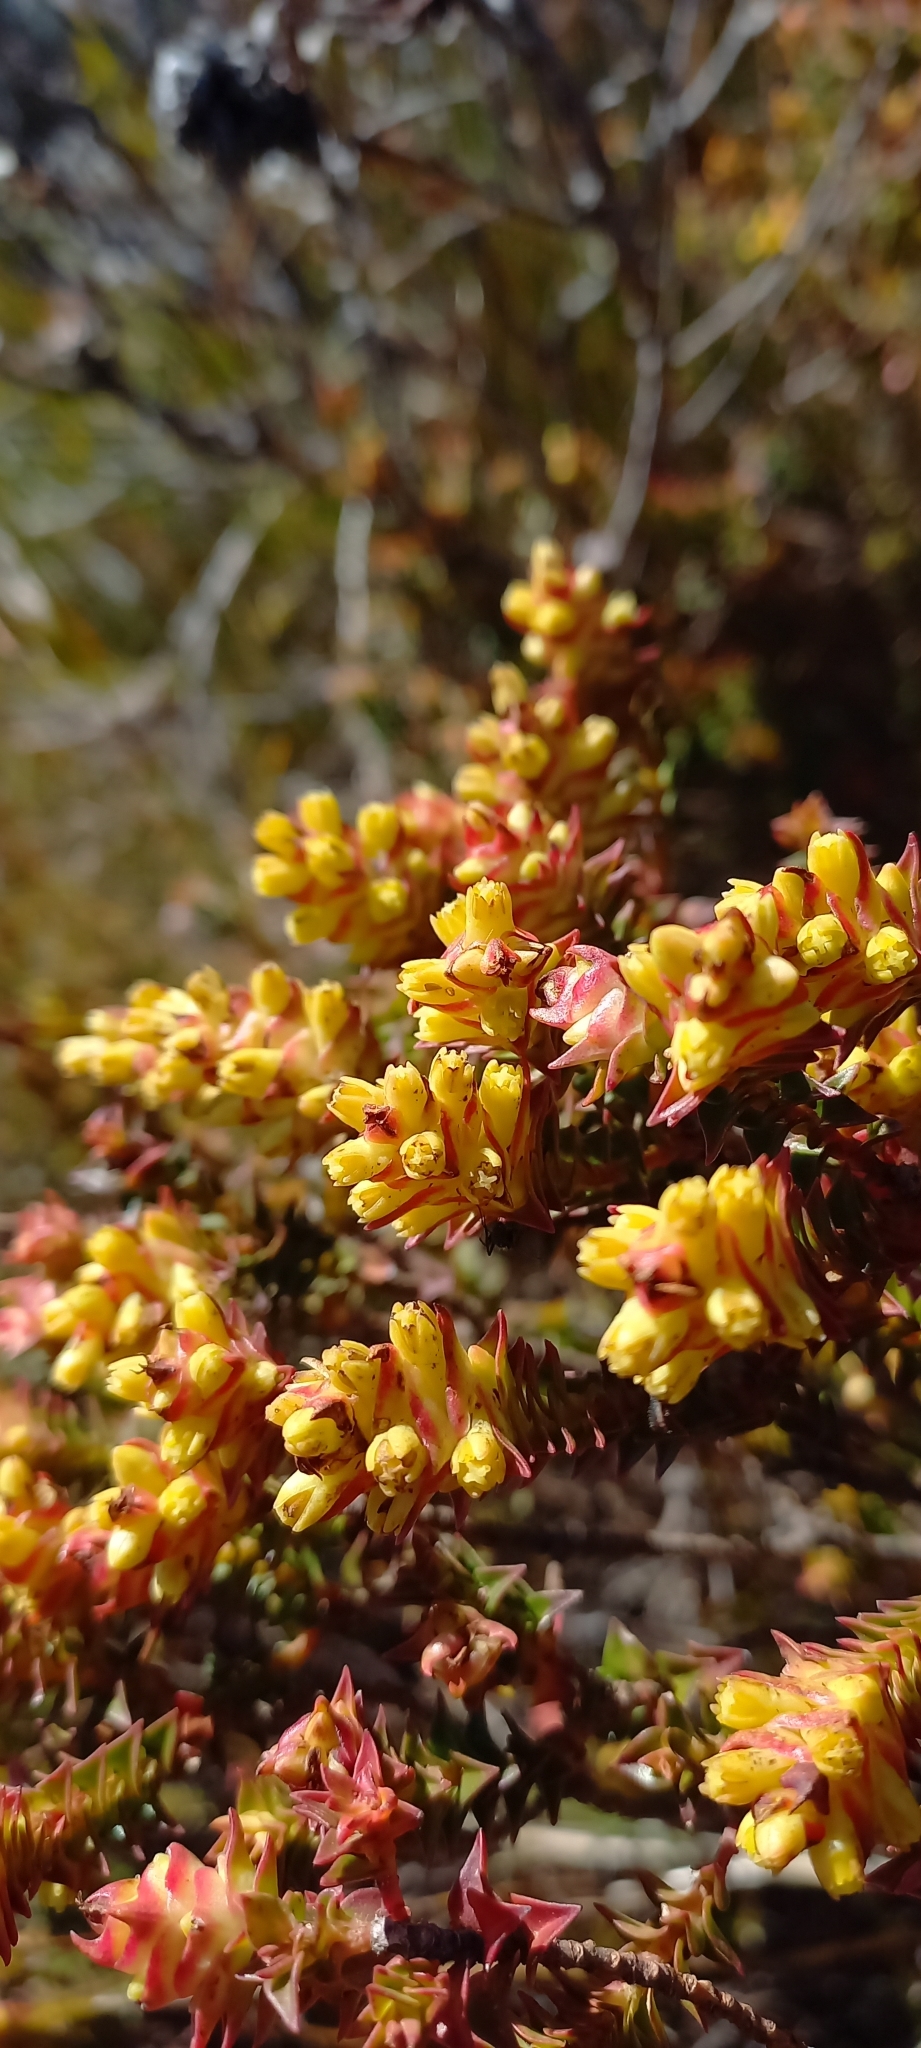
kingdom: Plantae
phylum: Tracheophyta
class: Magnoliopsida
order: Myrtales
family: Penaeaceae
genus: Penaea
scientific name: Penaea mucronata
